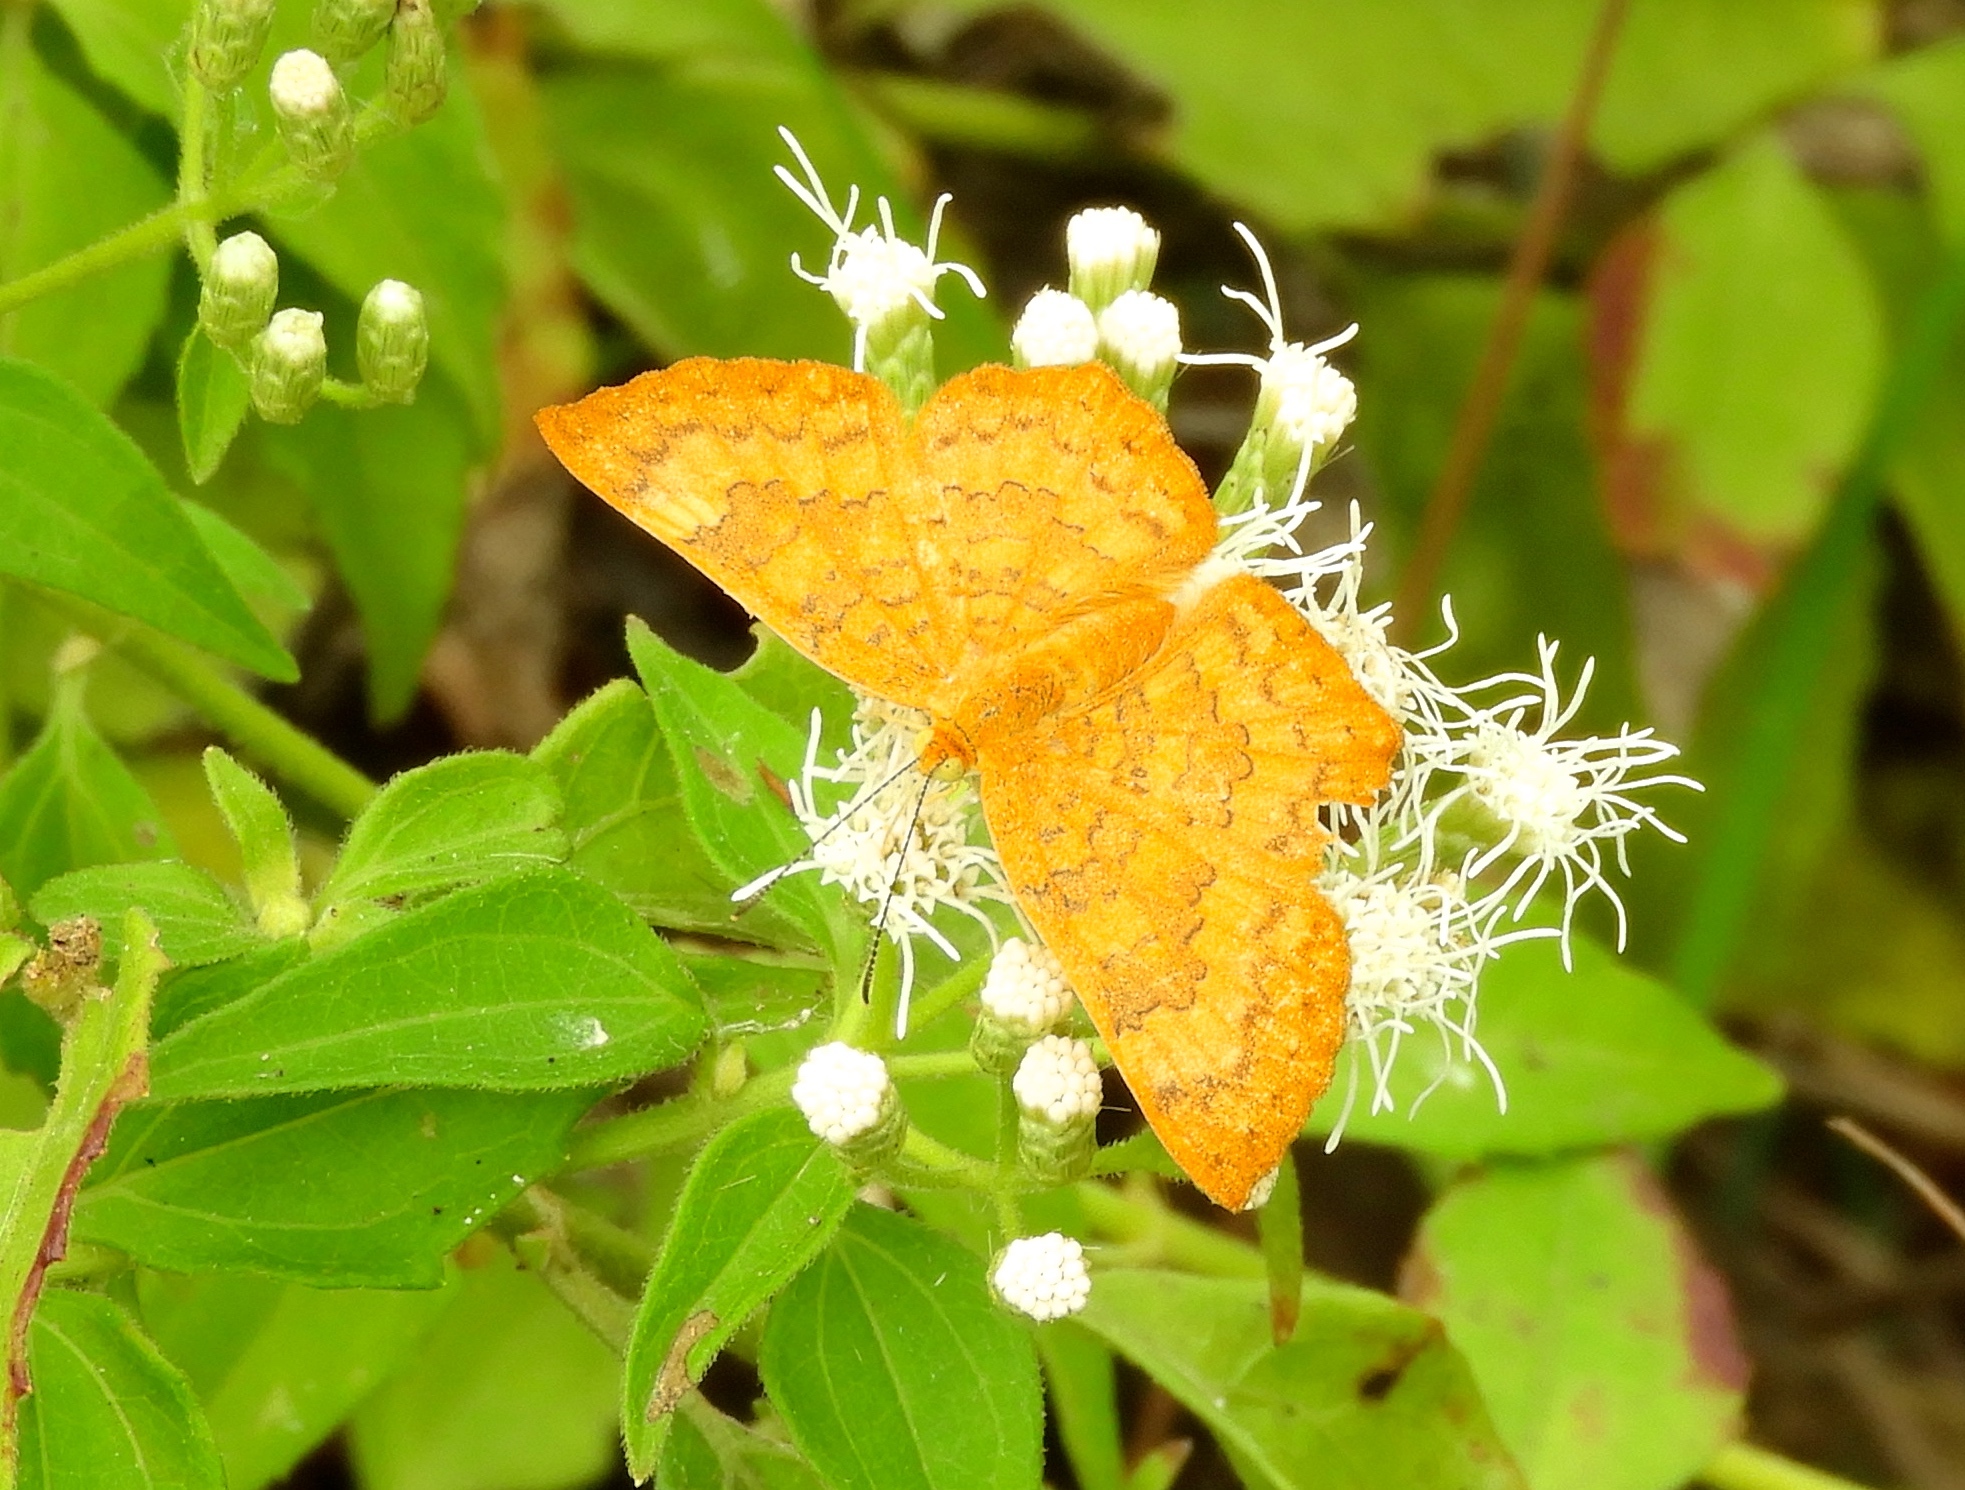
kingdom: Animalia
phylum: Arthropoda
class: Insecta
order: Lepidoptera
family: Lycaenidae
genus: Emesis
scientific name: Emesis
